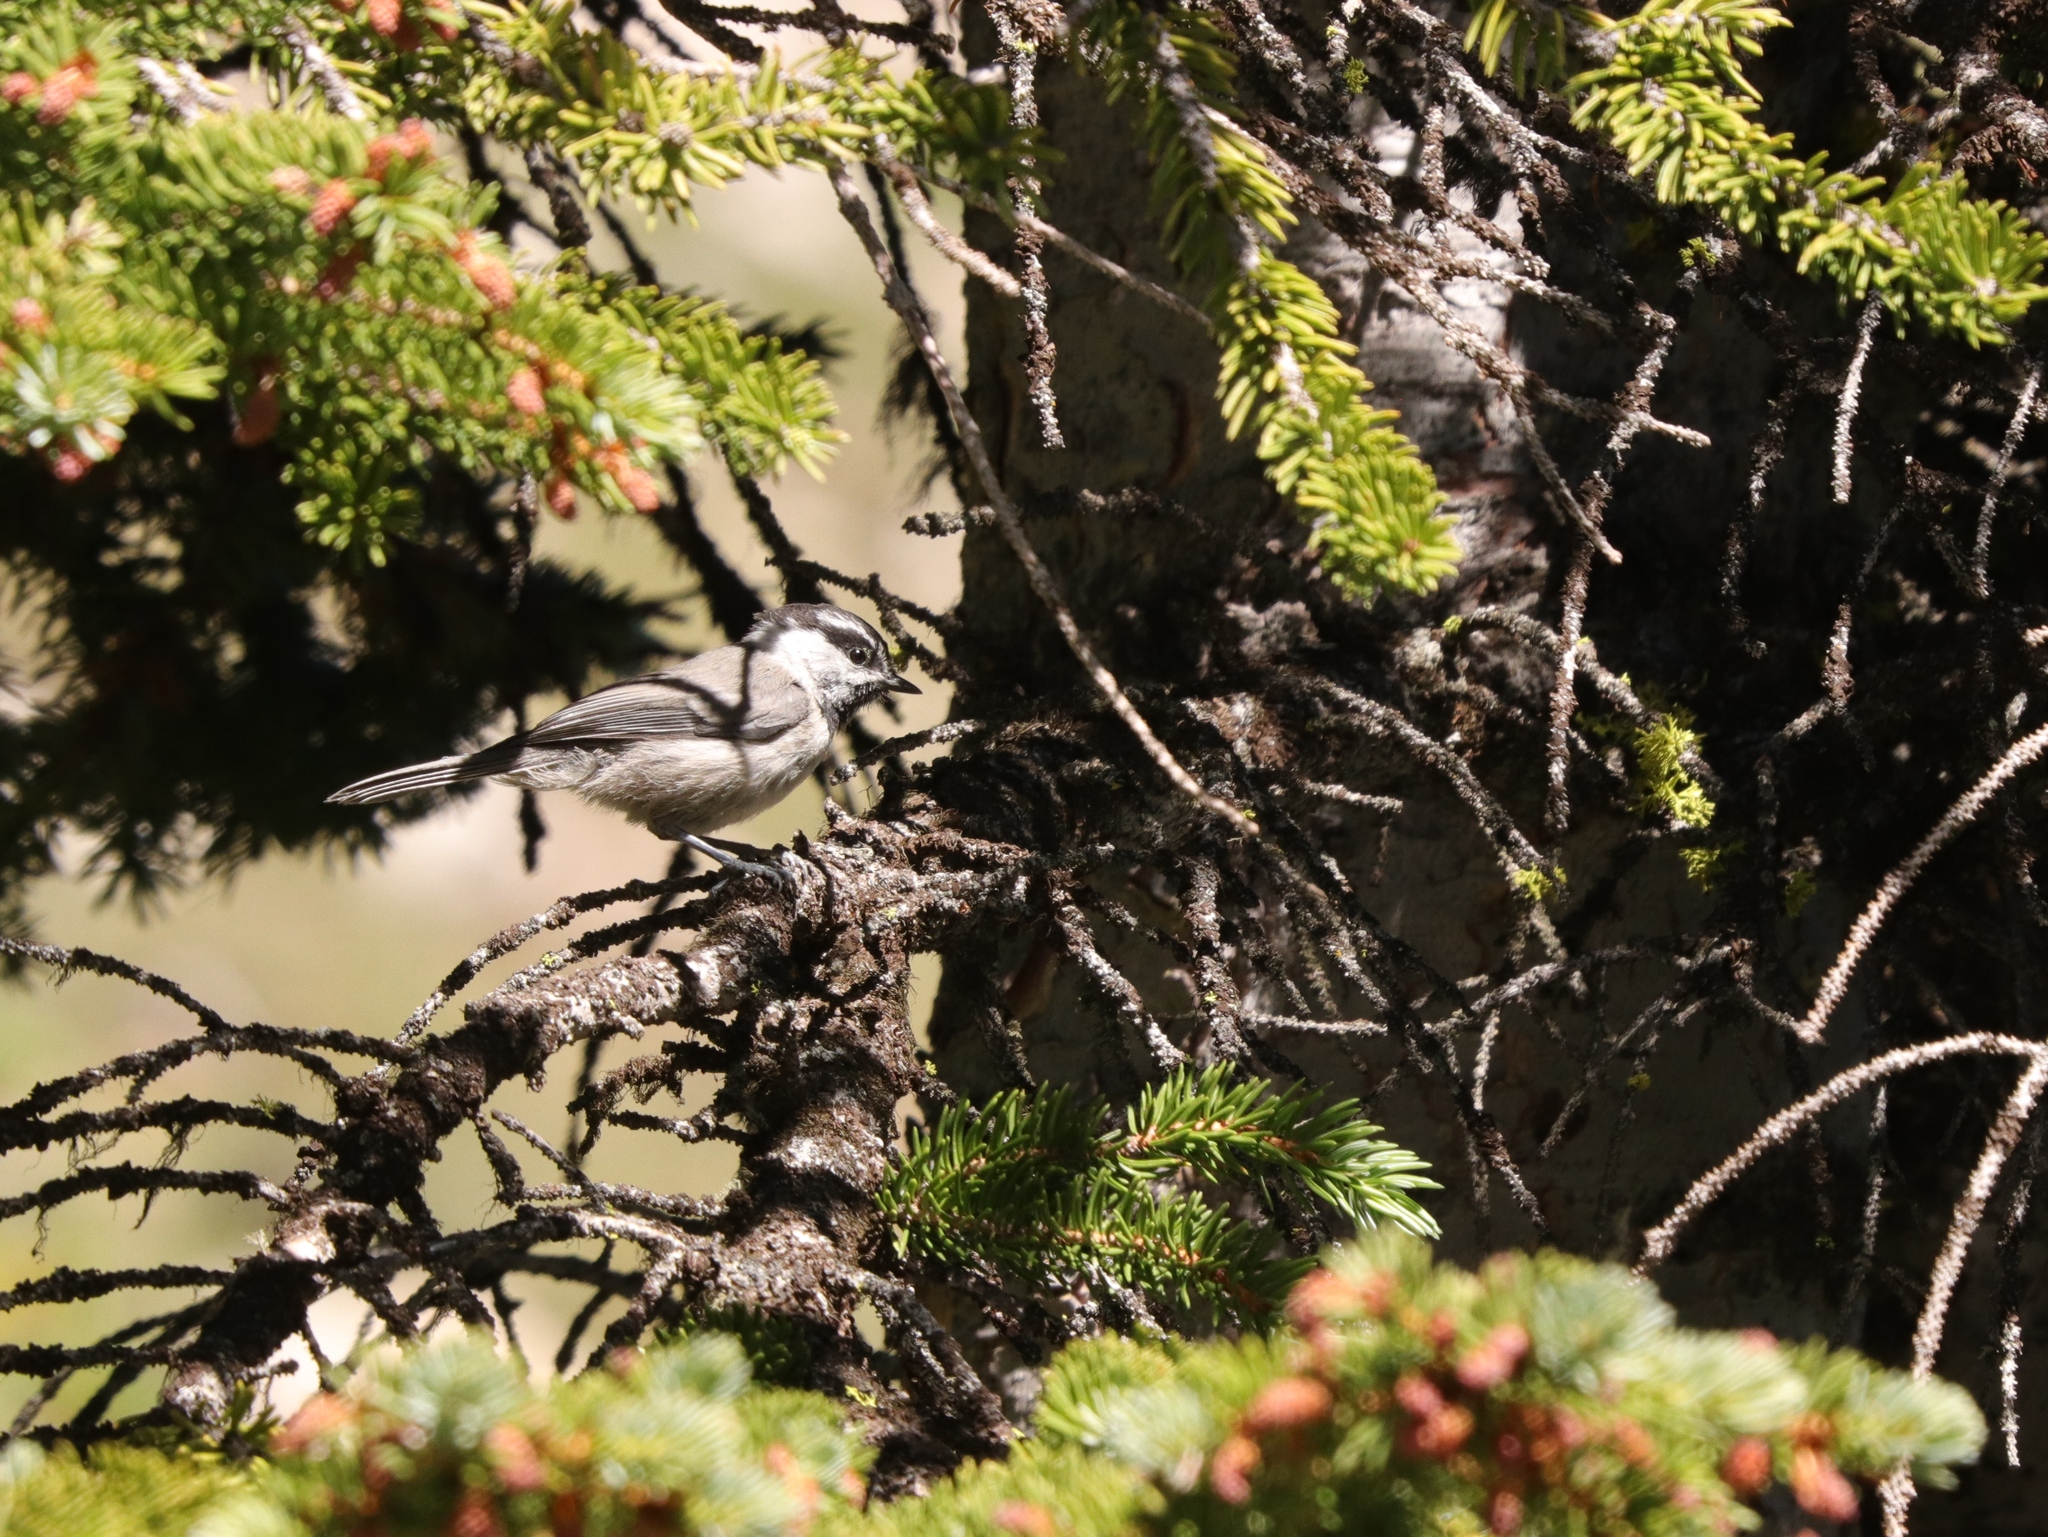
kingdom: Animalia
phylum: Chordata
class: Aves
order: Passeriformes
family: Paridae
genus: Poecile
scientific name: Poecile gambeli
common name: Mountain chickadee
